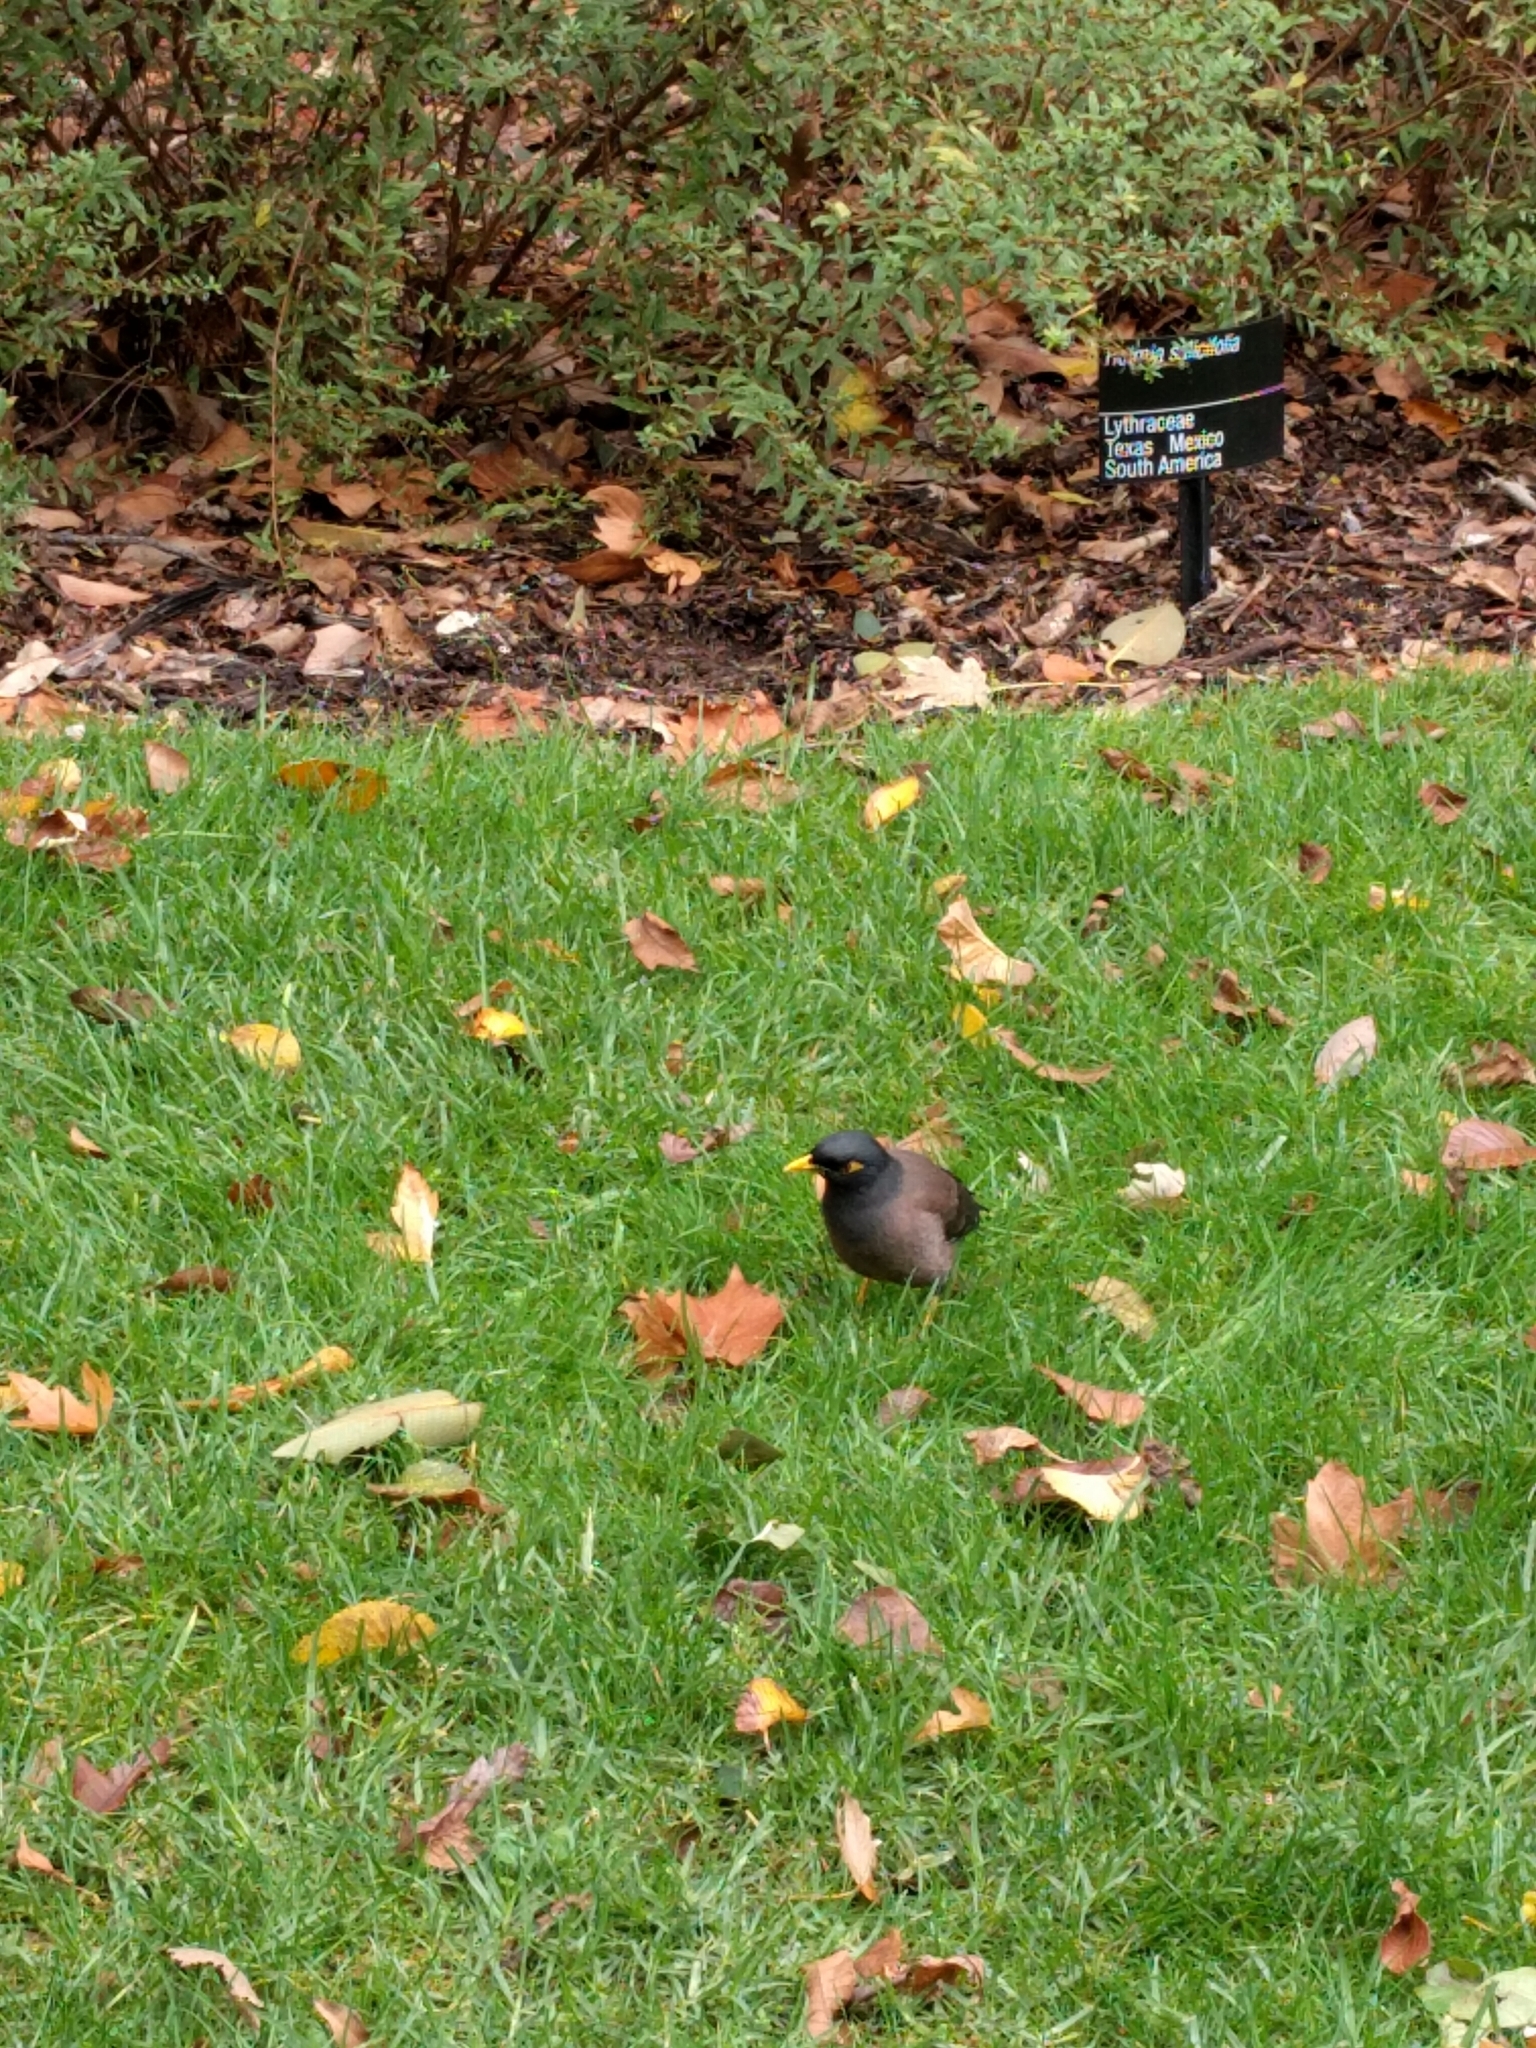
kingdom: Animalia
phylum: Chordata
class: Aves
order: Passeriformes
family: Sturnidae
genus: Acridotheres
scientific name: Acridotheres tristis
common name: Common myna
